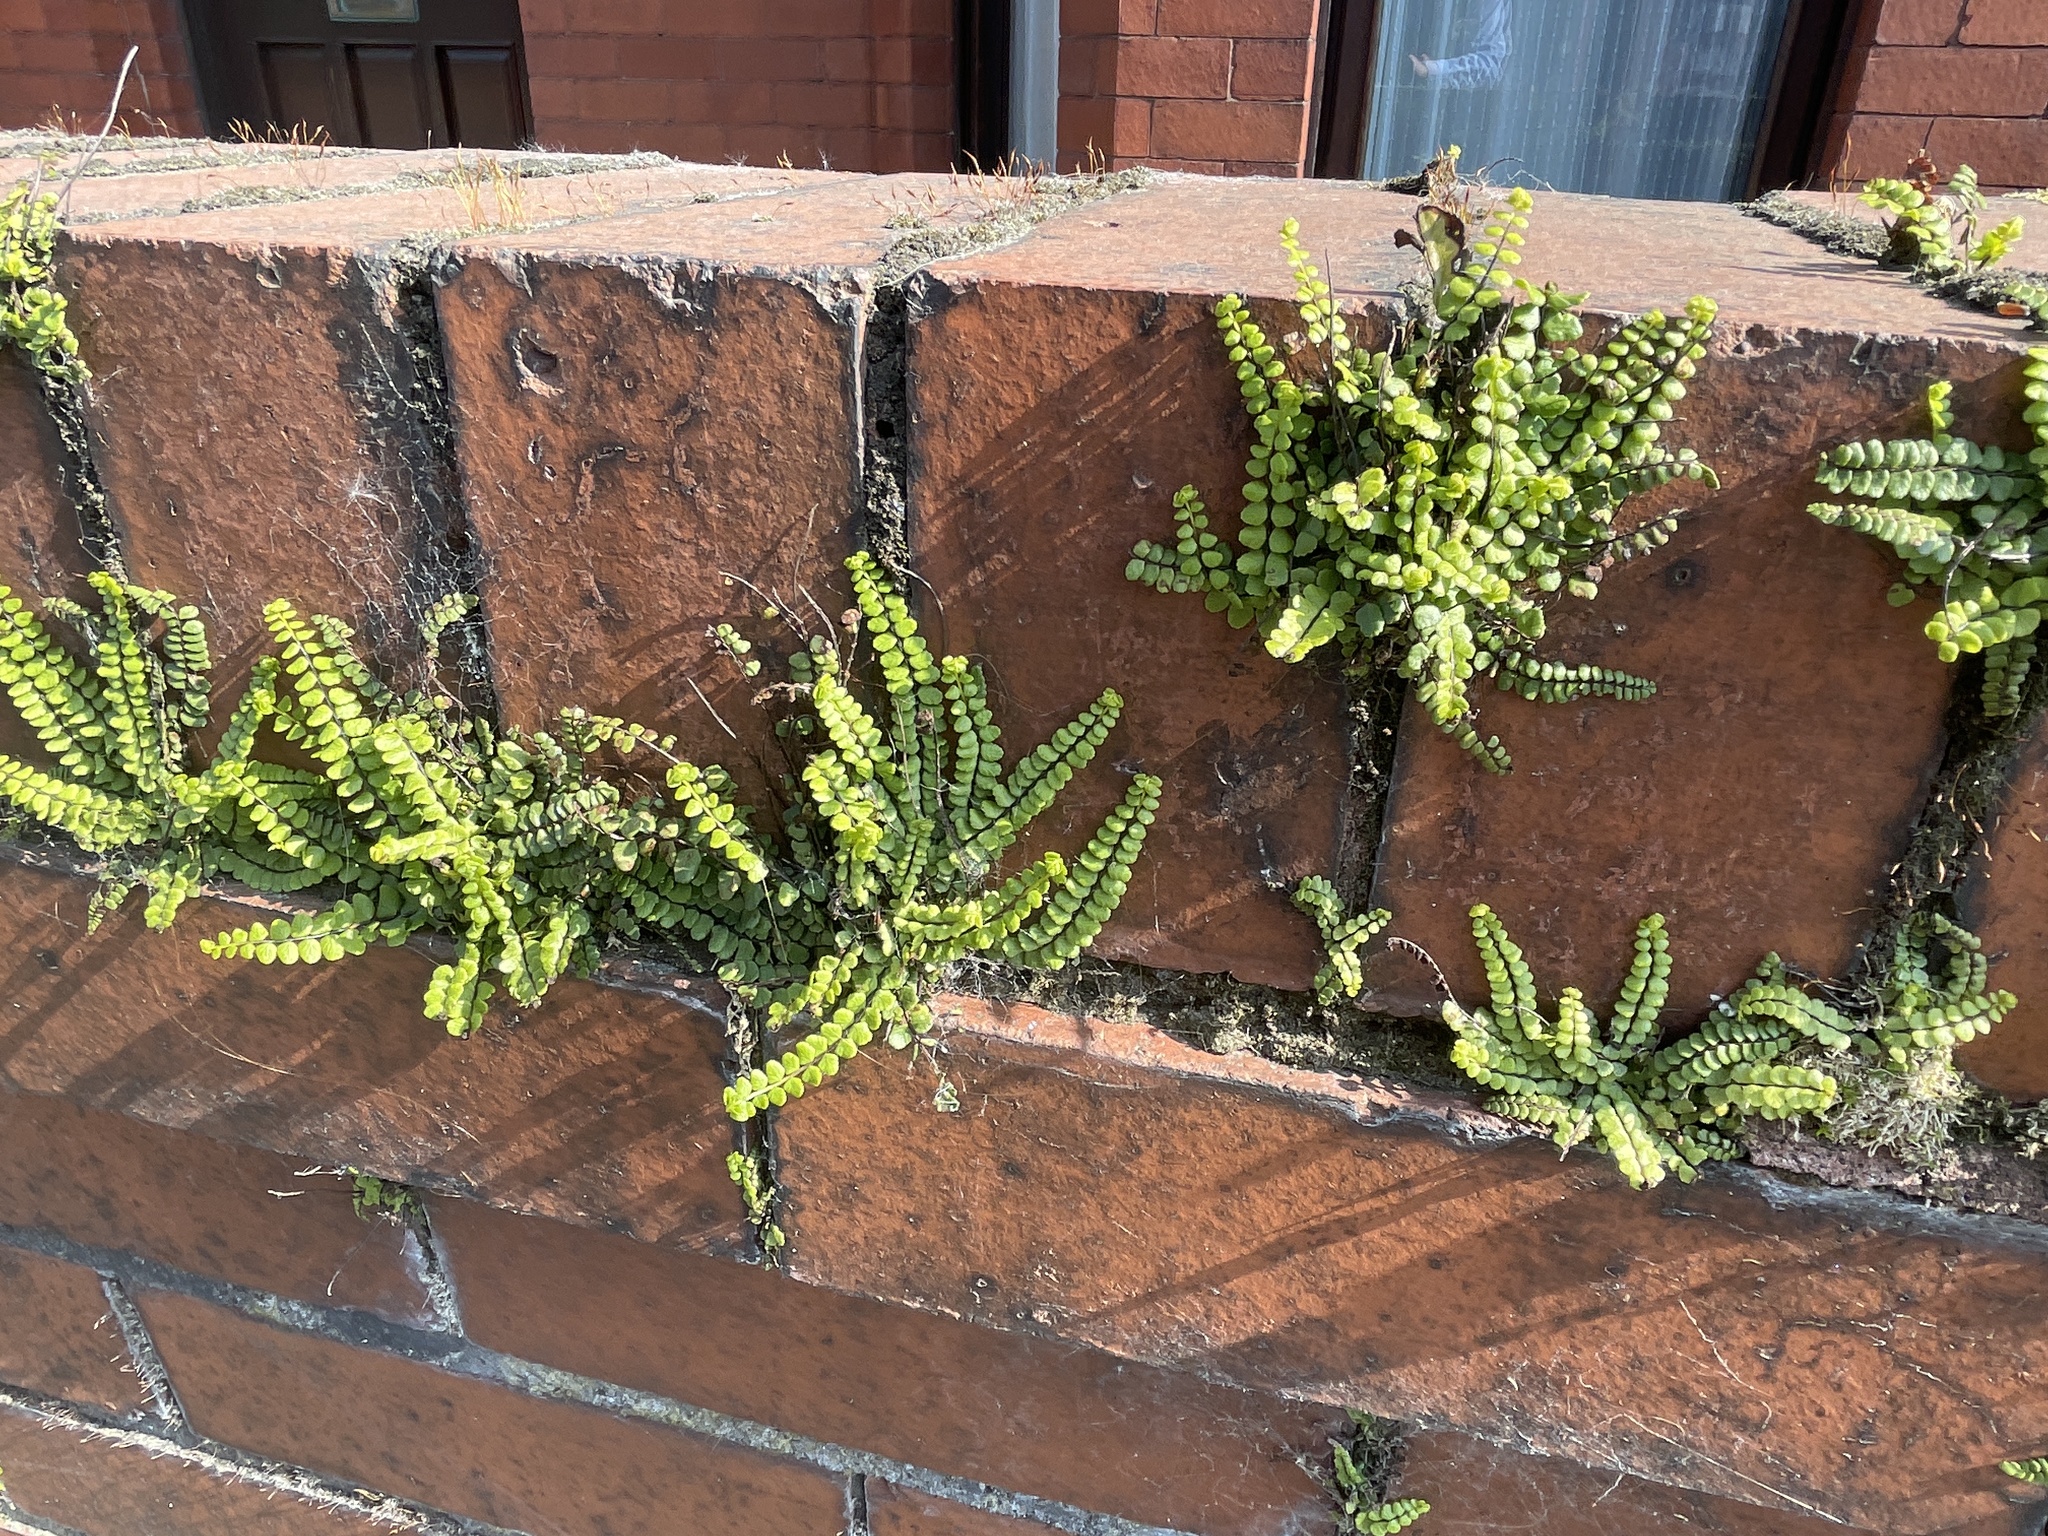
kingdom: Plantae
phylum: Tracheophyta
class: Polypodiopsida
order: Polypodiales
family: Aspleniaceae
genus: Asplenium
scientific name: Asplenium trichomanes
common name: Maidenhair spleenwort
